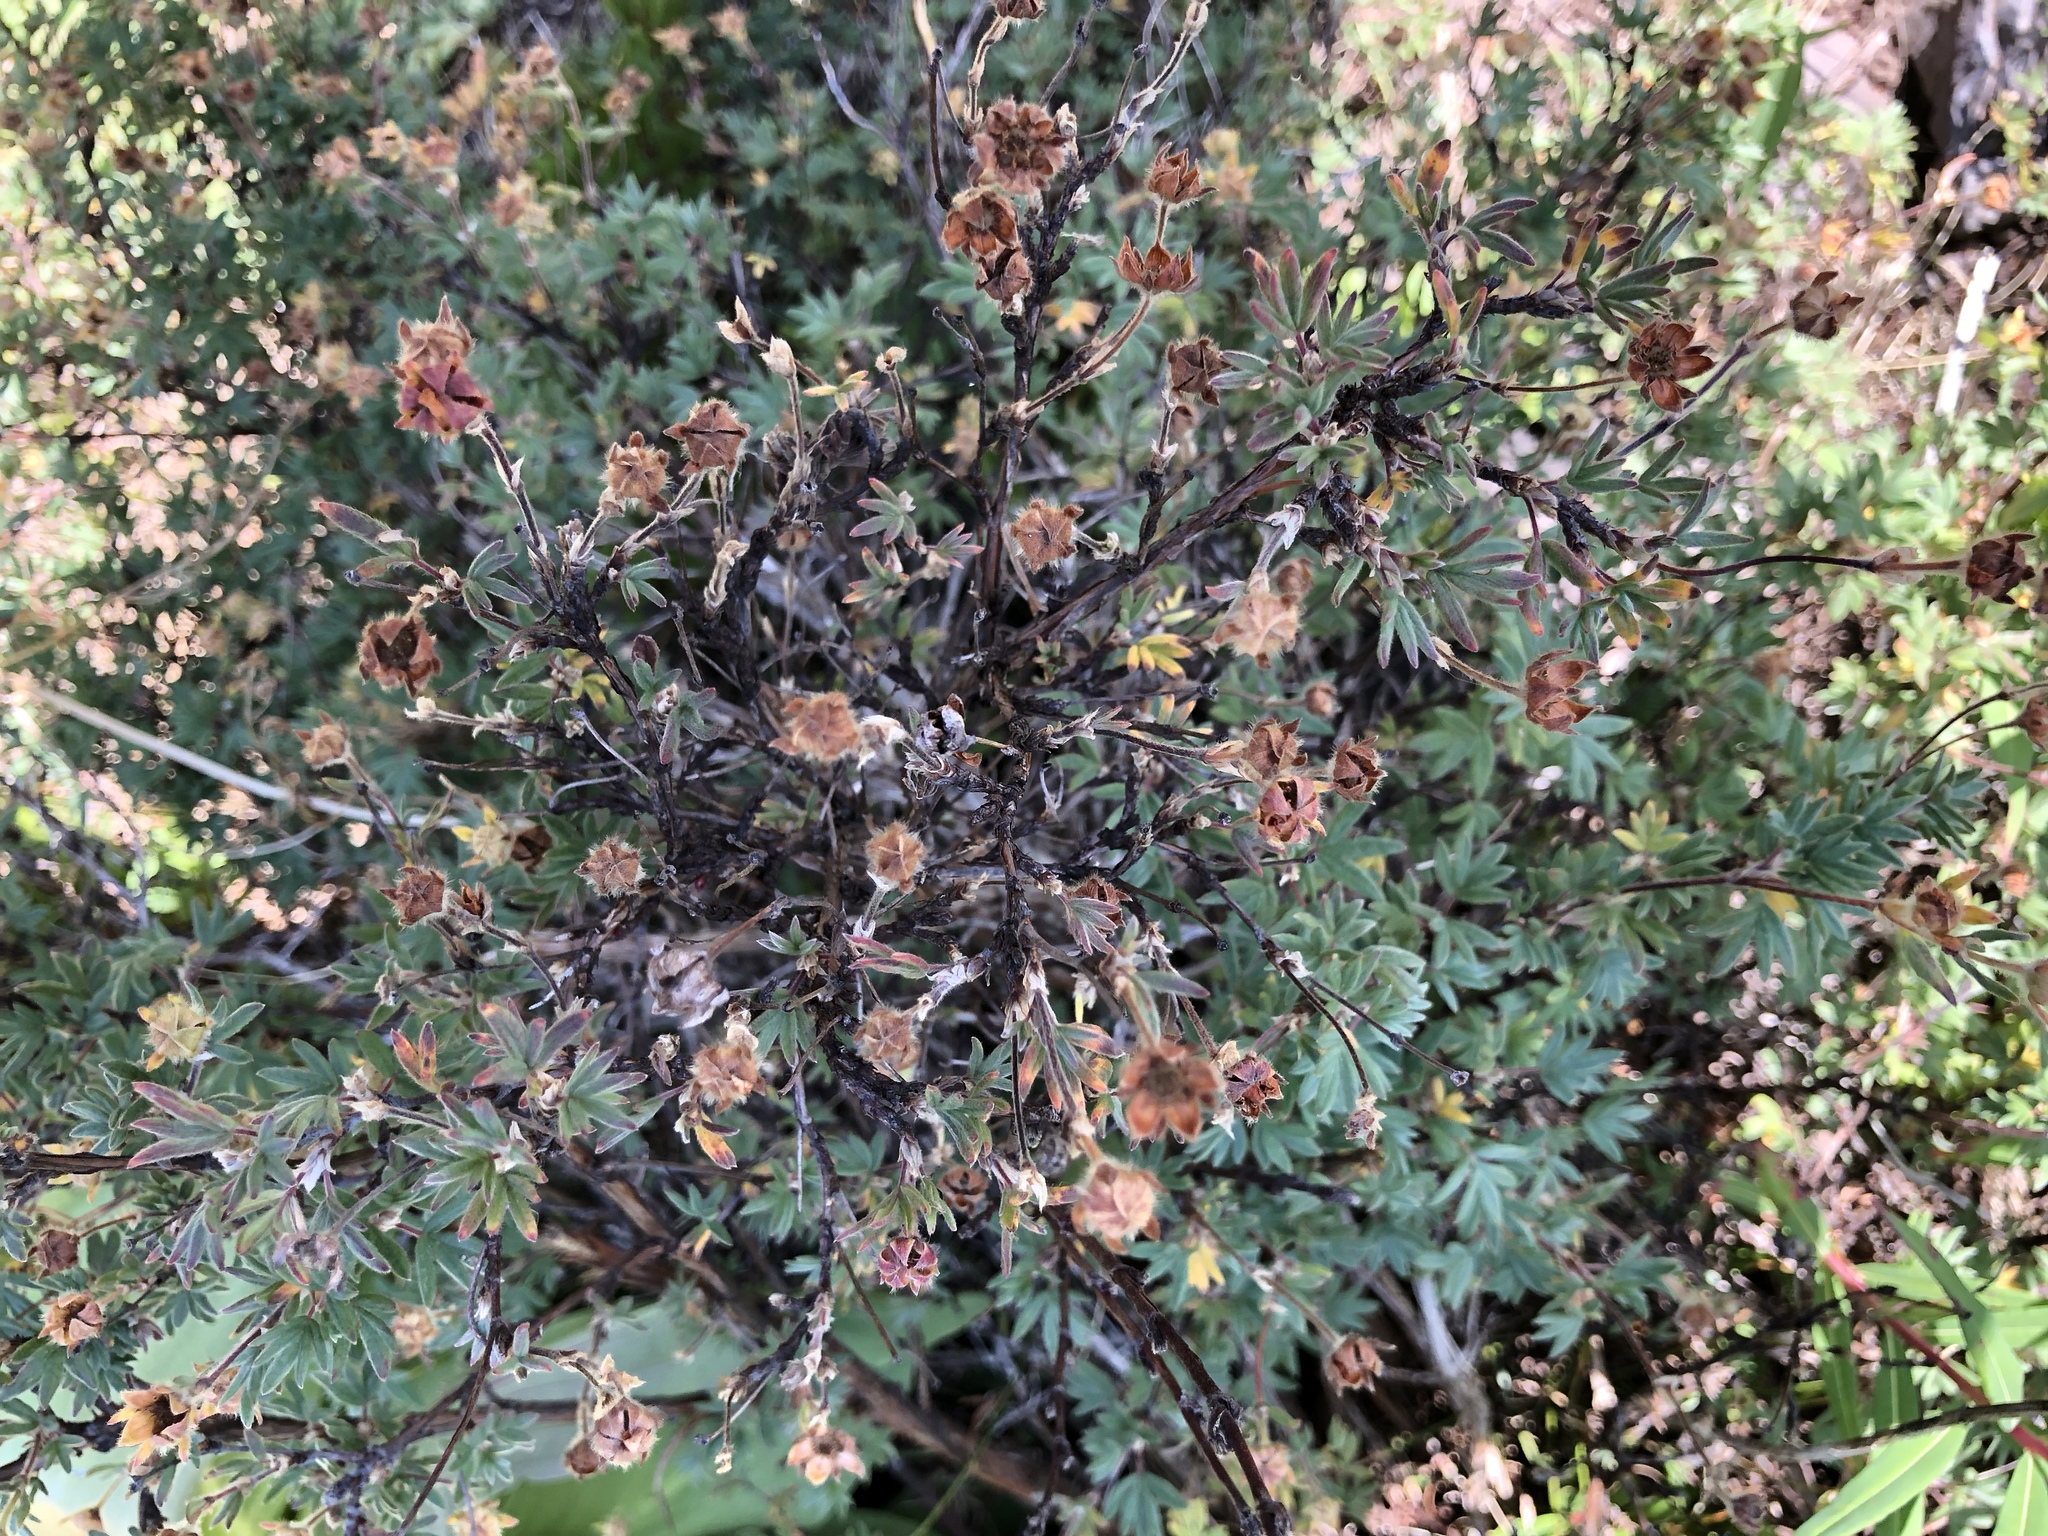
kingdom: Plantae
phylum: Tracheophyta
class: Magnoliopsida
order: Rosales
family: Rosaceae
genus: Dasiphora
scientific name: Dasiphora fruticosa
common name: Shrubby cinquefoil
